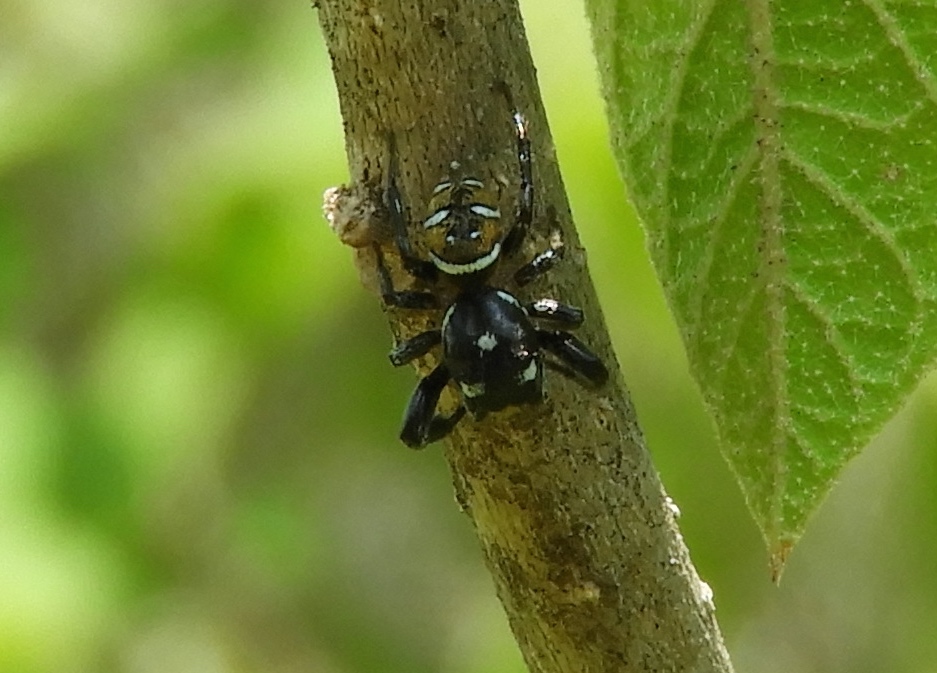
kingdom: Animalia
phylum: Arthropoda
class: Arachnida
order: Araneae
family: Salticidae
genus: Sassacus
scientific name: Sassacus
